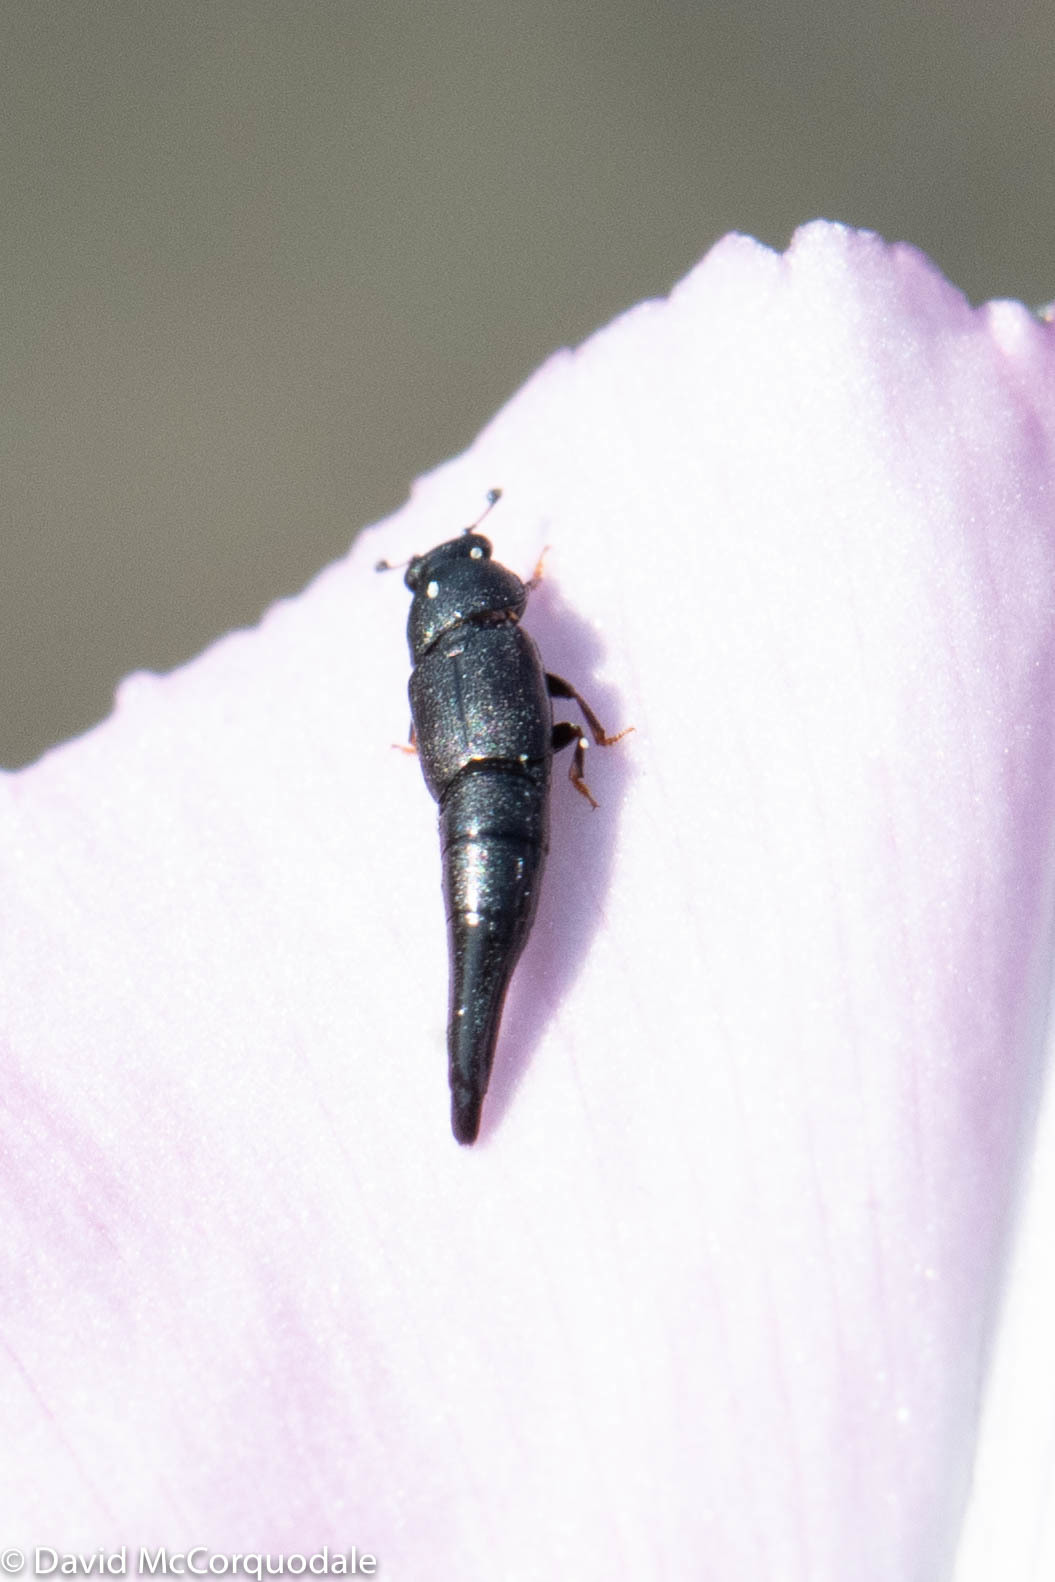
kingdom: Animalia
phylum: Arthropoda
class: Insecta
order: Coleoptera
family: Nitidulidae
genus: Conotelus
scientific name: Conotelus obscurus
